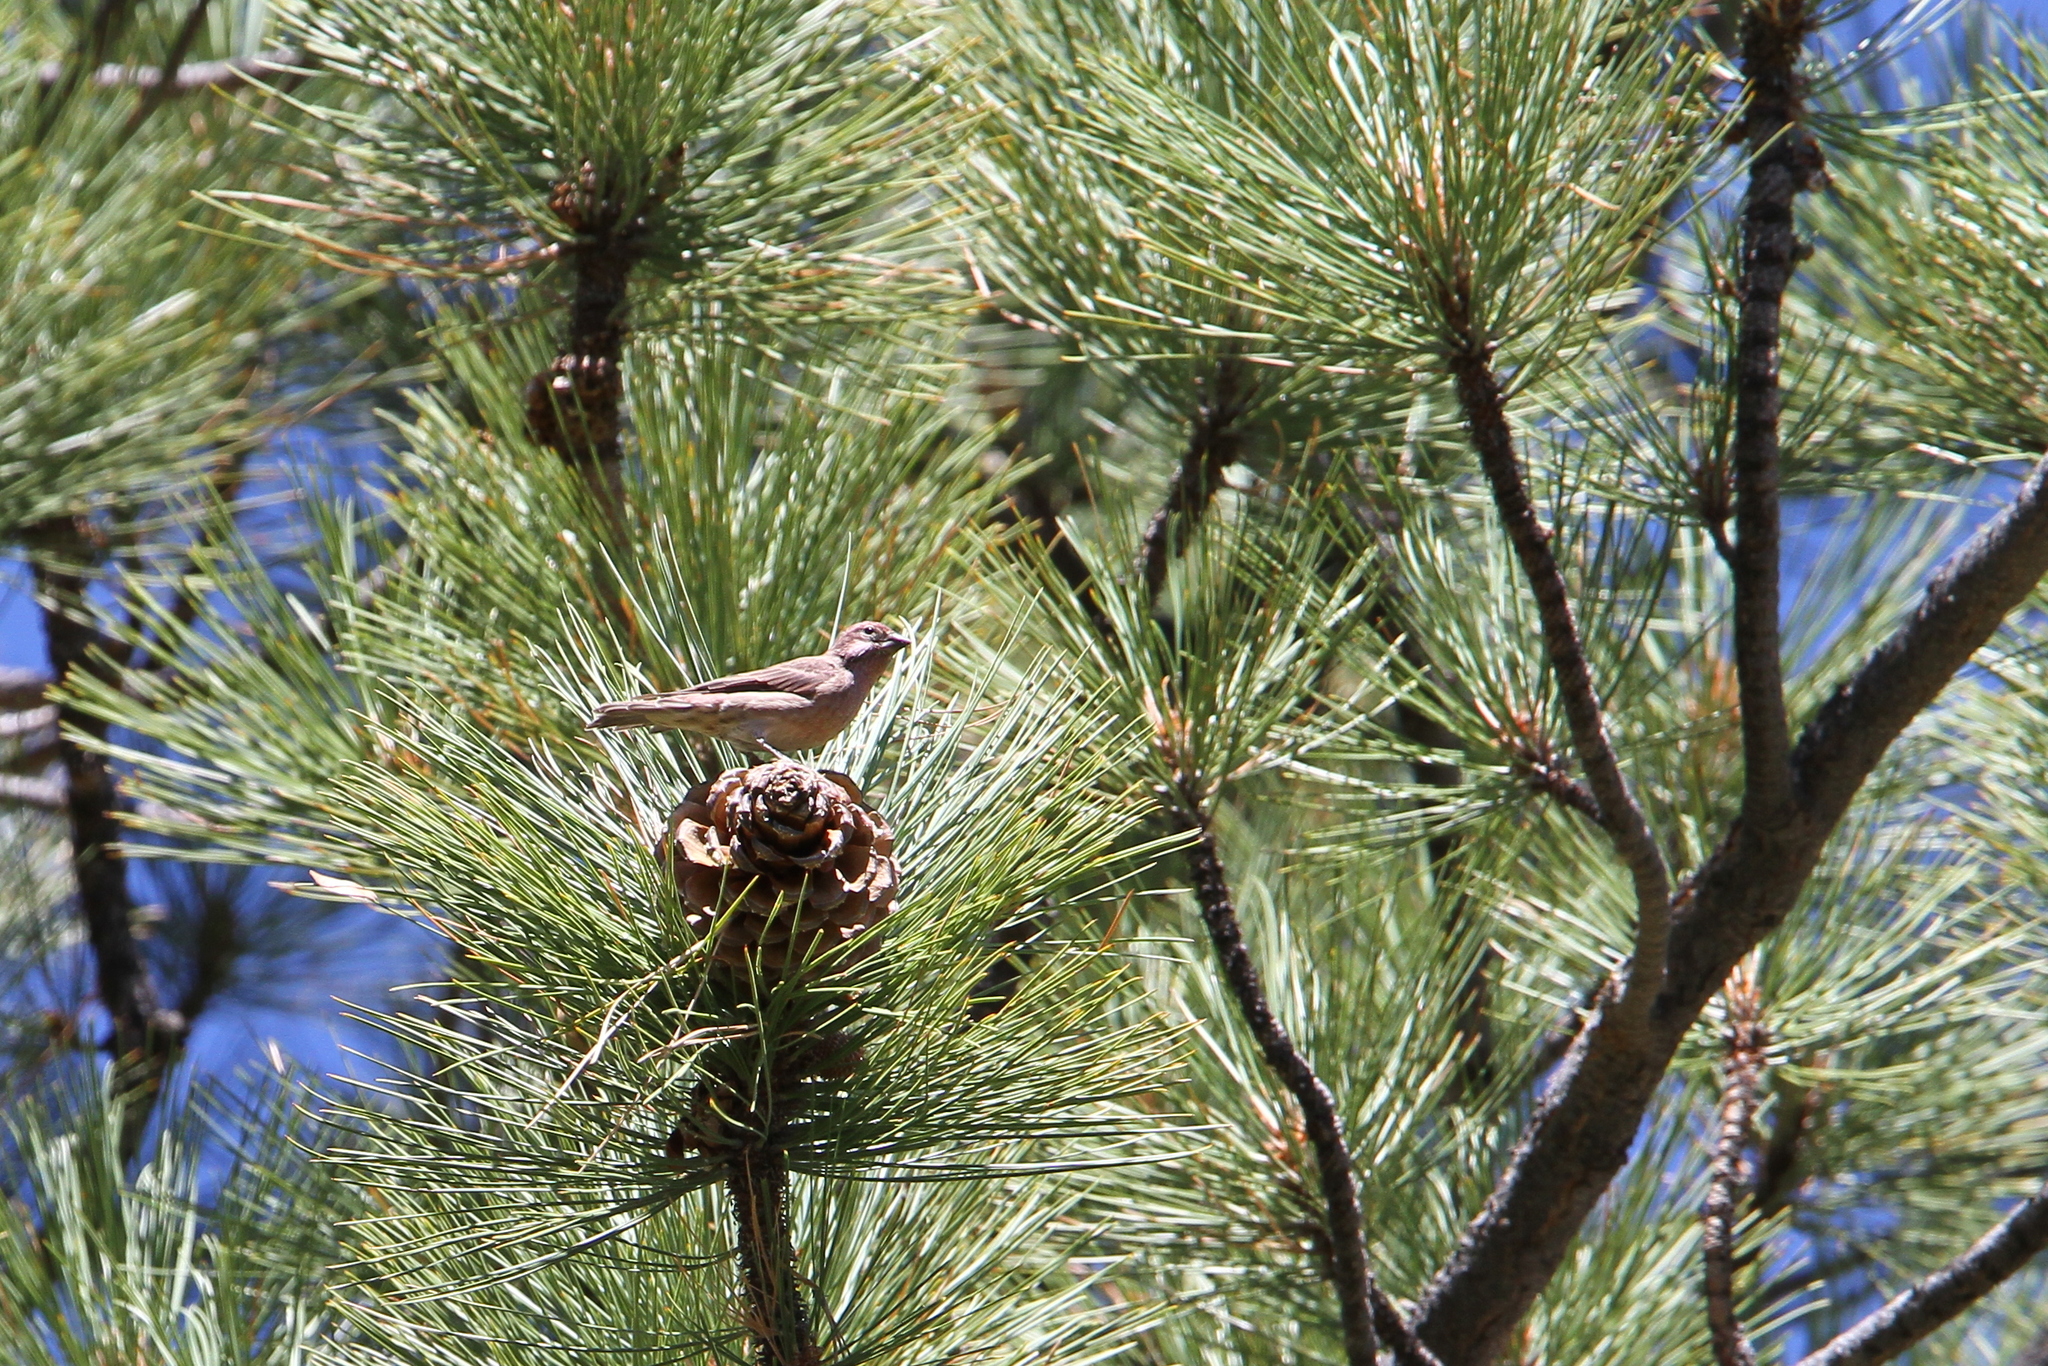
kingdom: Animalia
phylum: Chordata
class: Aves
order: Passeriformes
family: Fringillidae
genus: Haemorhous
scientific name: Haemorhous cassinii
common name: Cassin's finch
